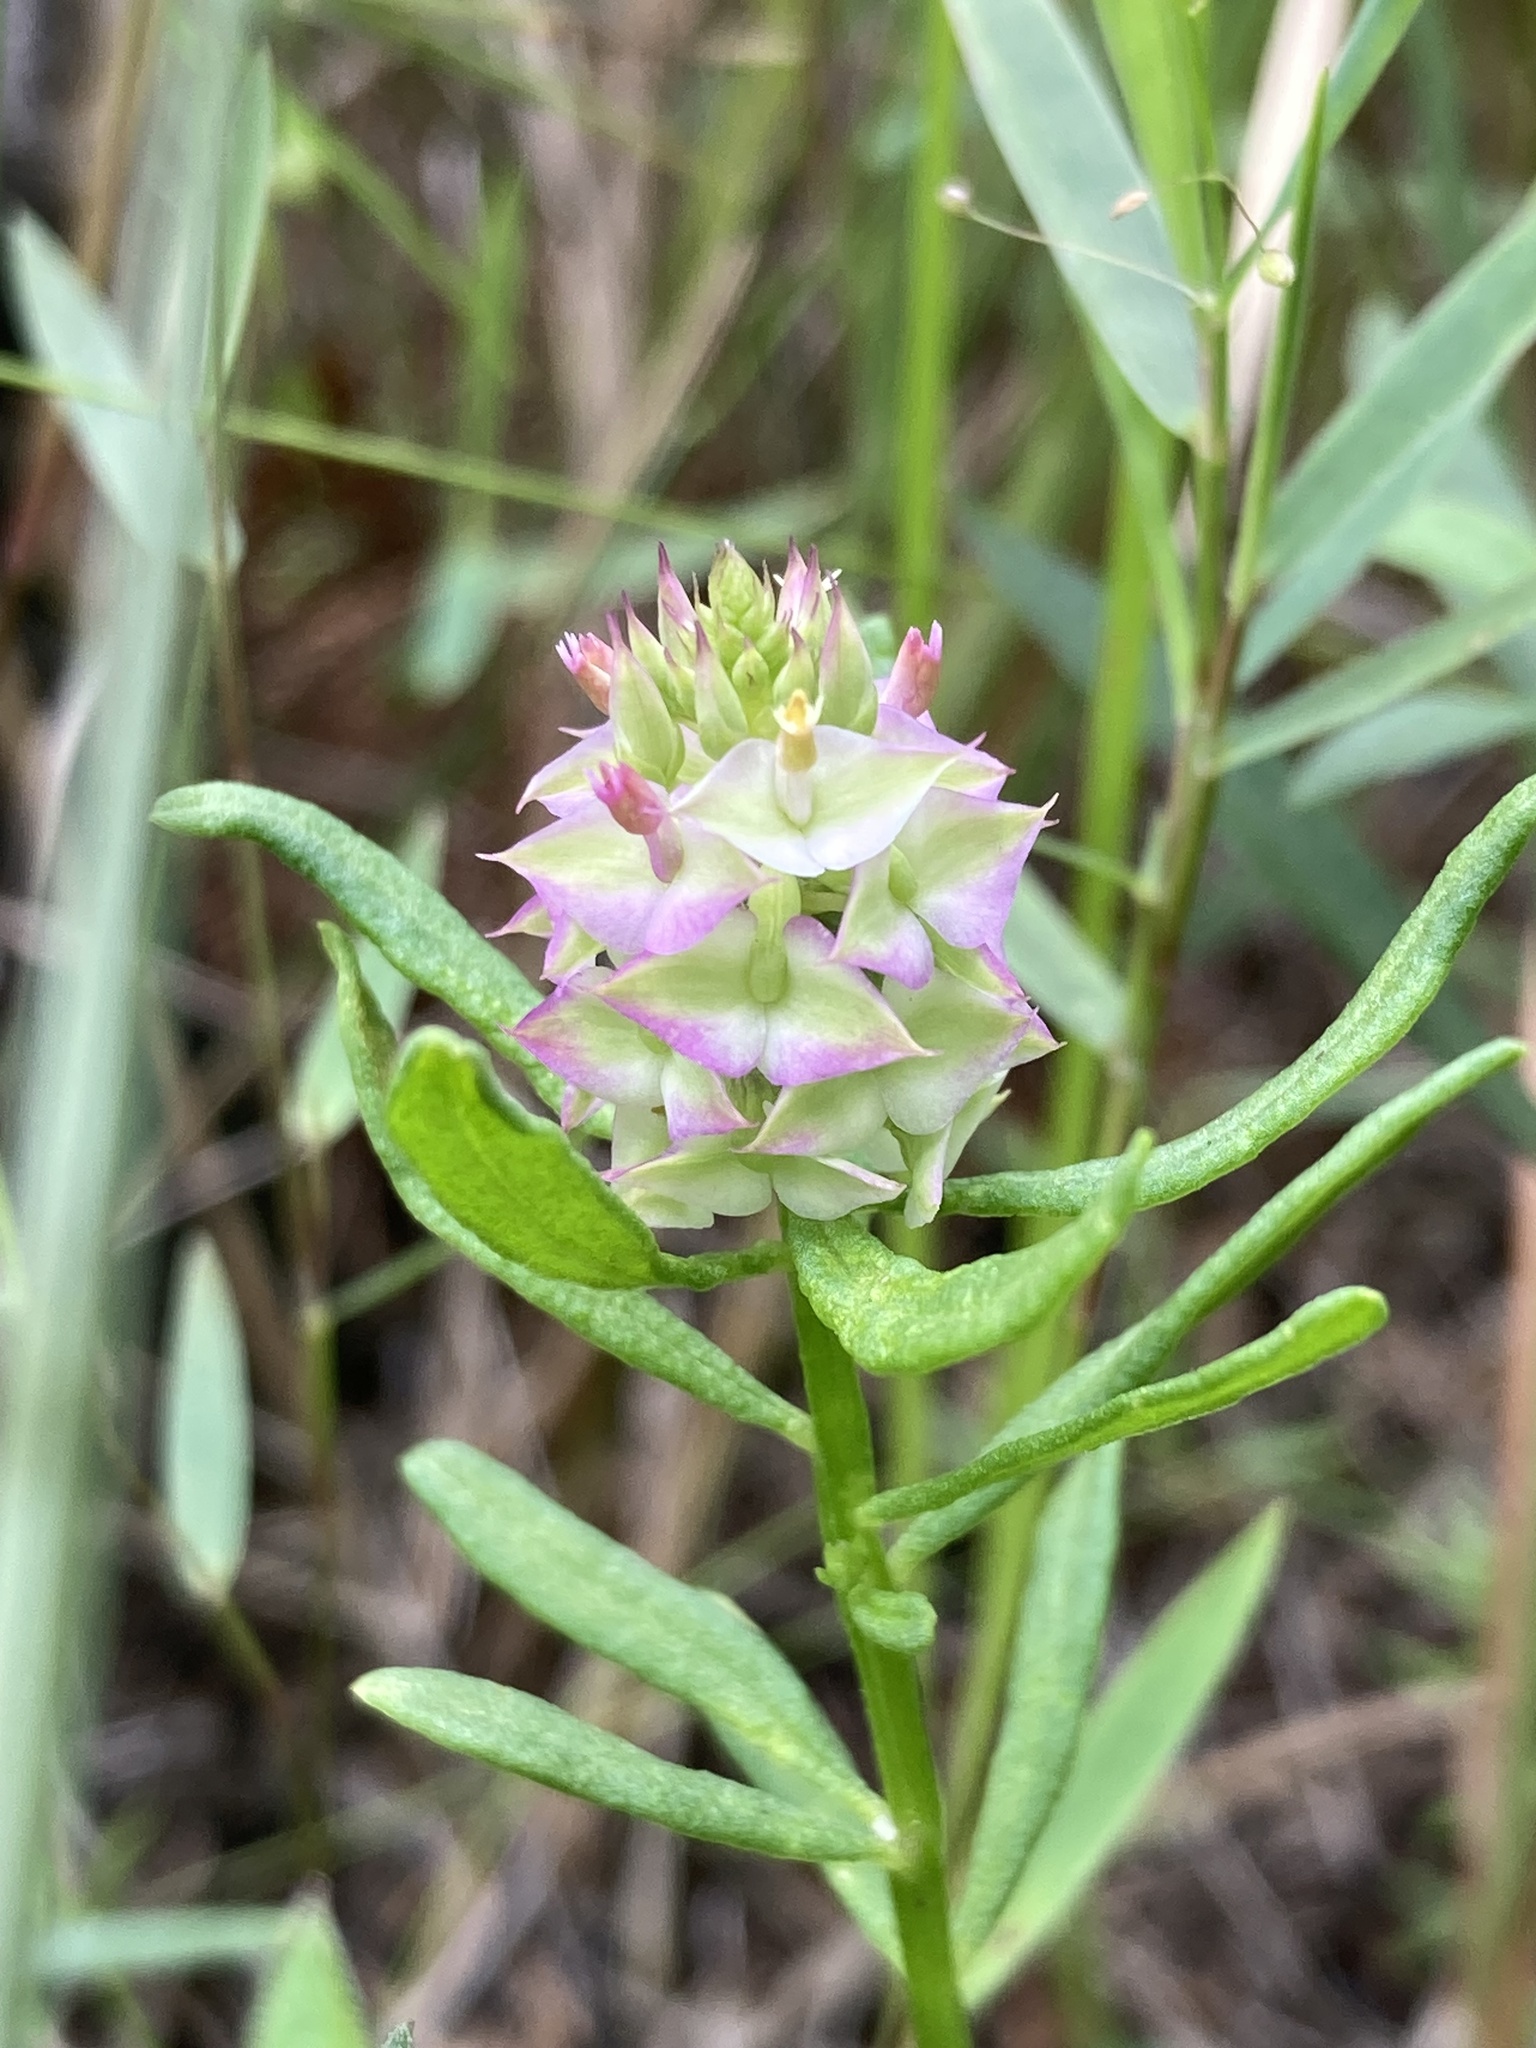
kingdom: Plantae
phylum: Tracheophyta
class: Magnoliopsida
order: Fabales
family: Polygalaceae
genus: Polygala
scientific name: Polygala cruciata
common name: Drumheads
